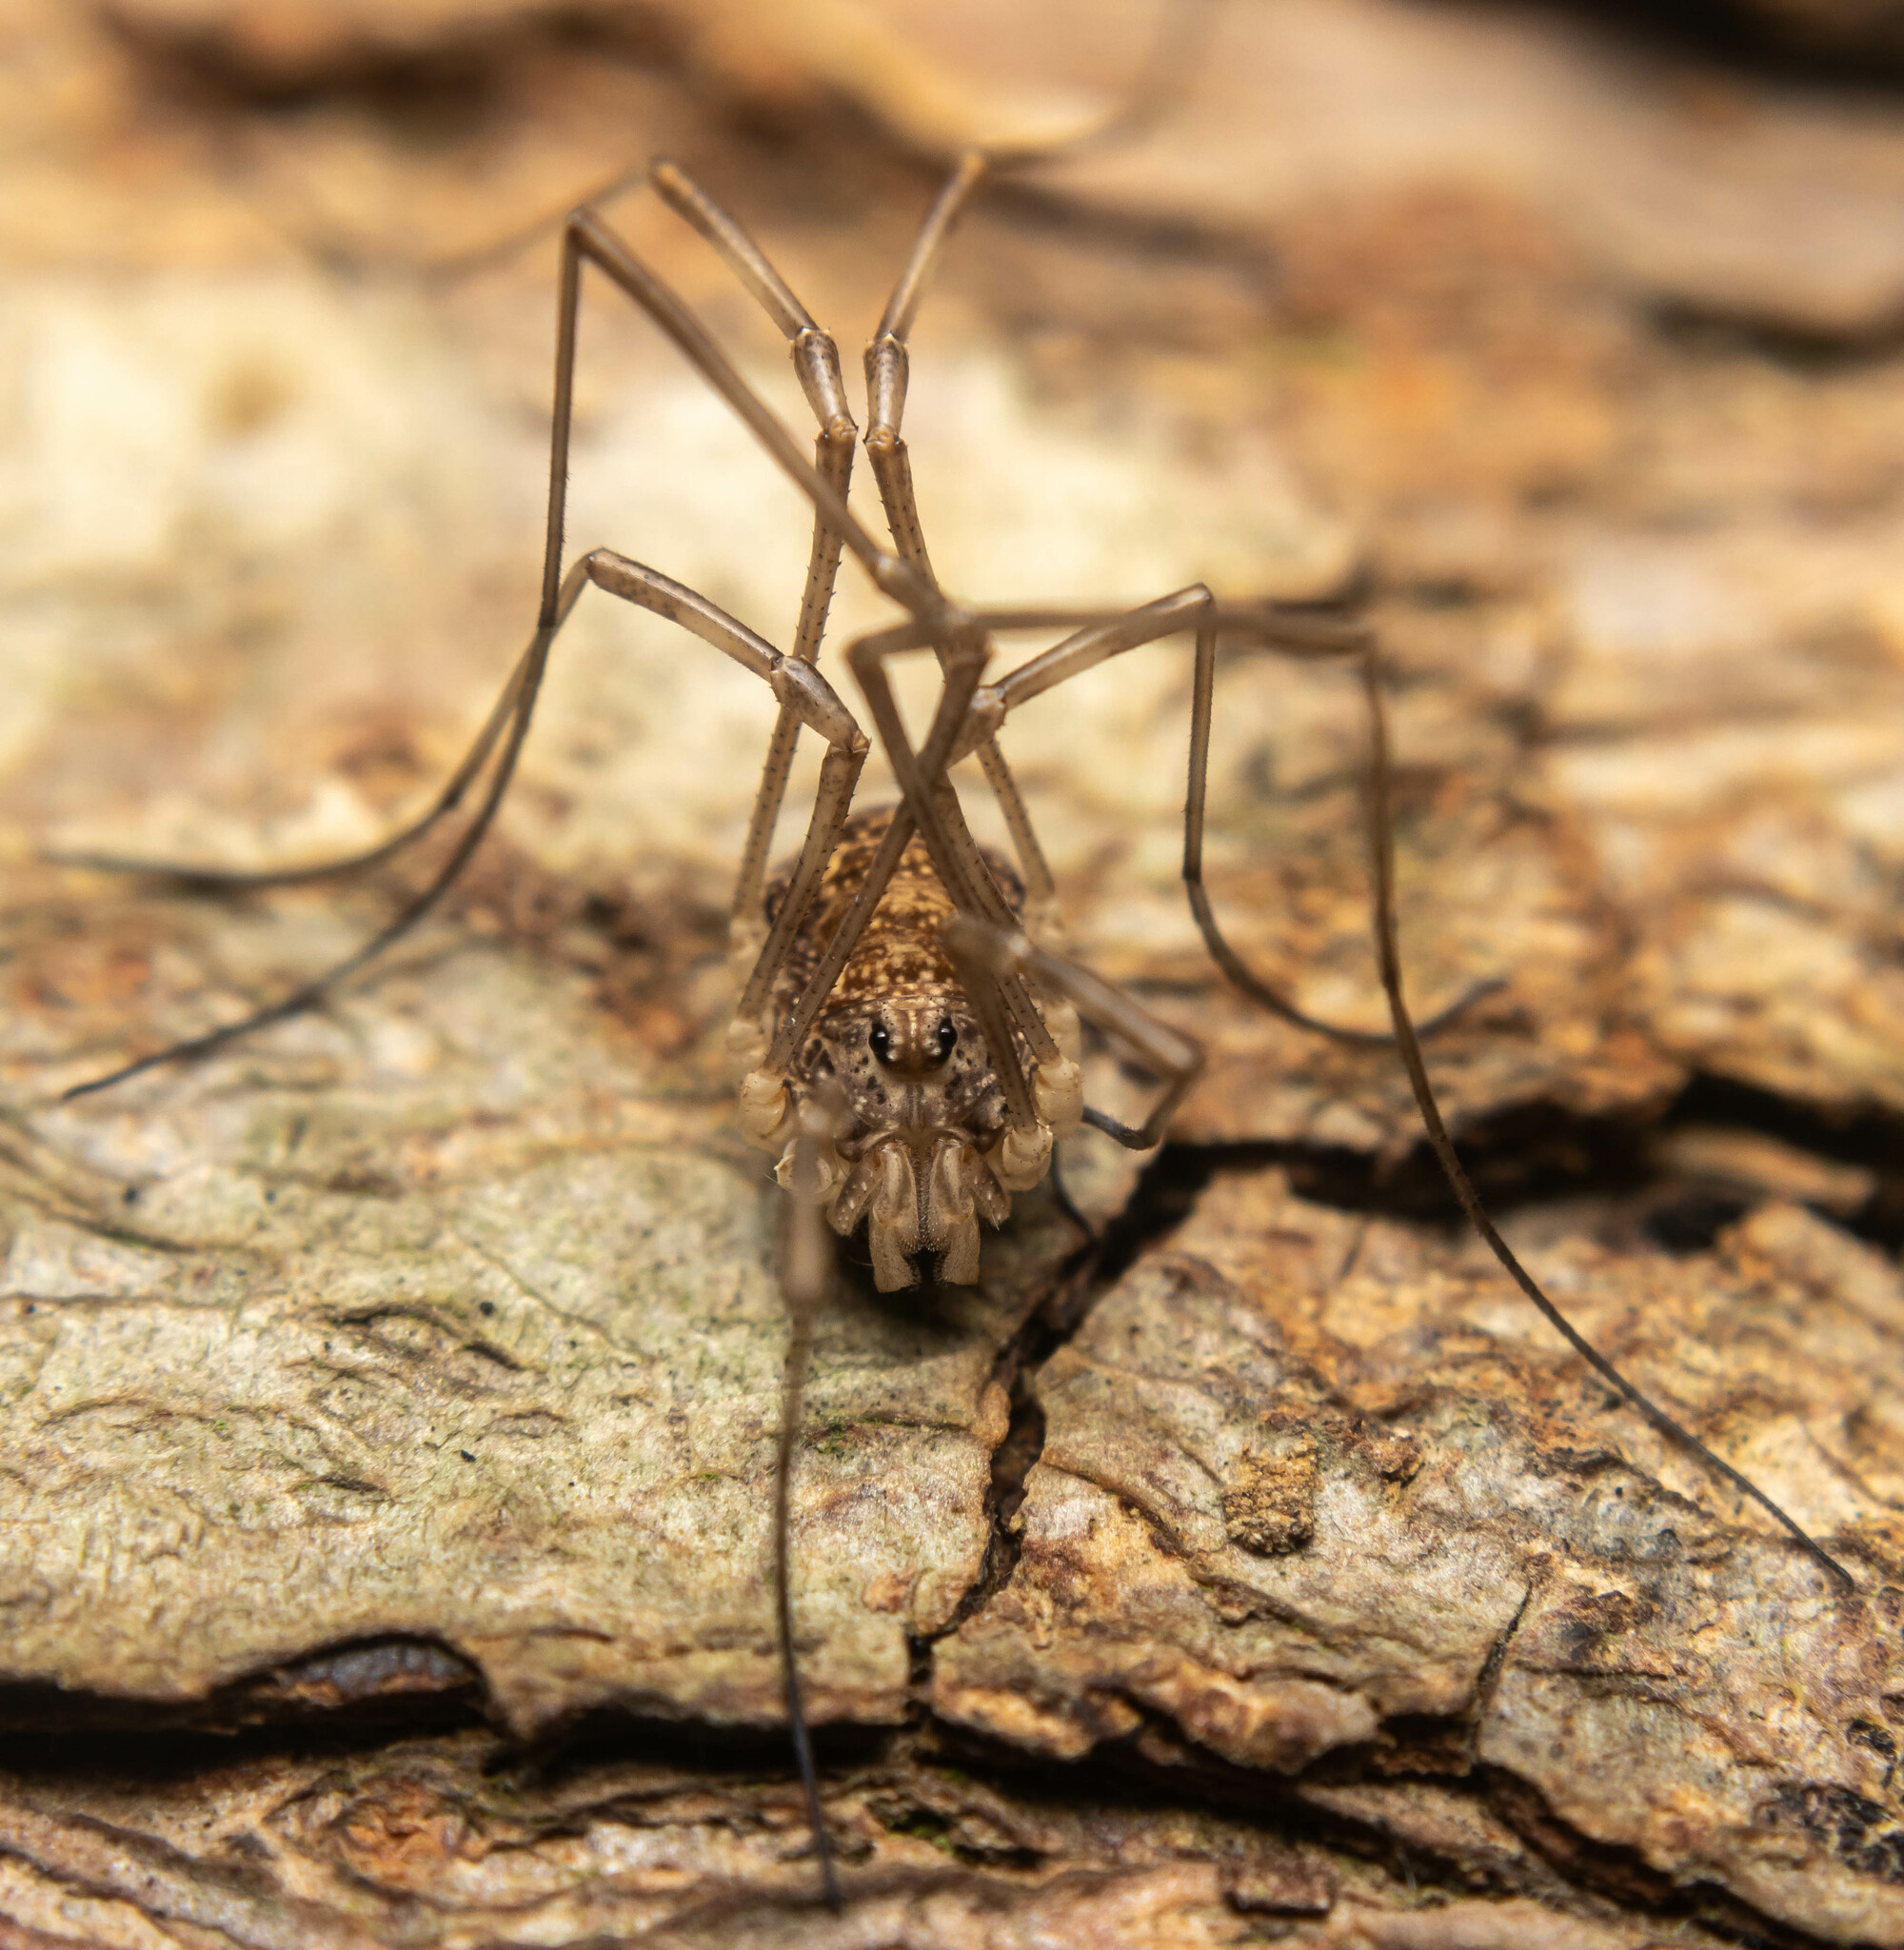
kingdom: Animalia
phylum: Arthropoda
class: Arachnida
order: Opiliones
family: Phalangiidae
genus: Rilaena
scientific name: Rilaena triangularis
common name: Spring harvestman
